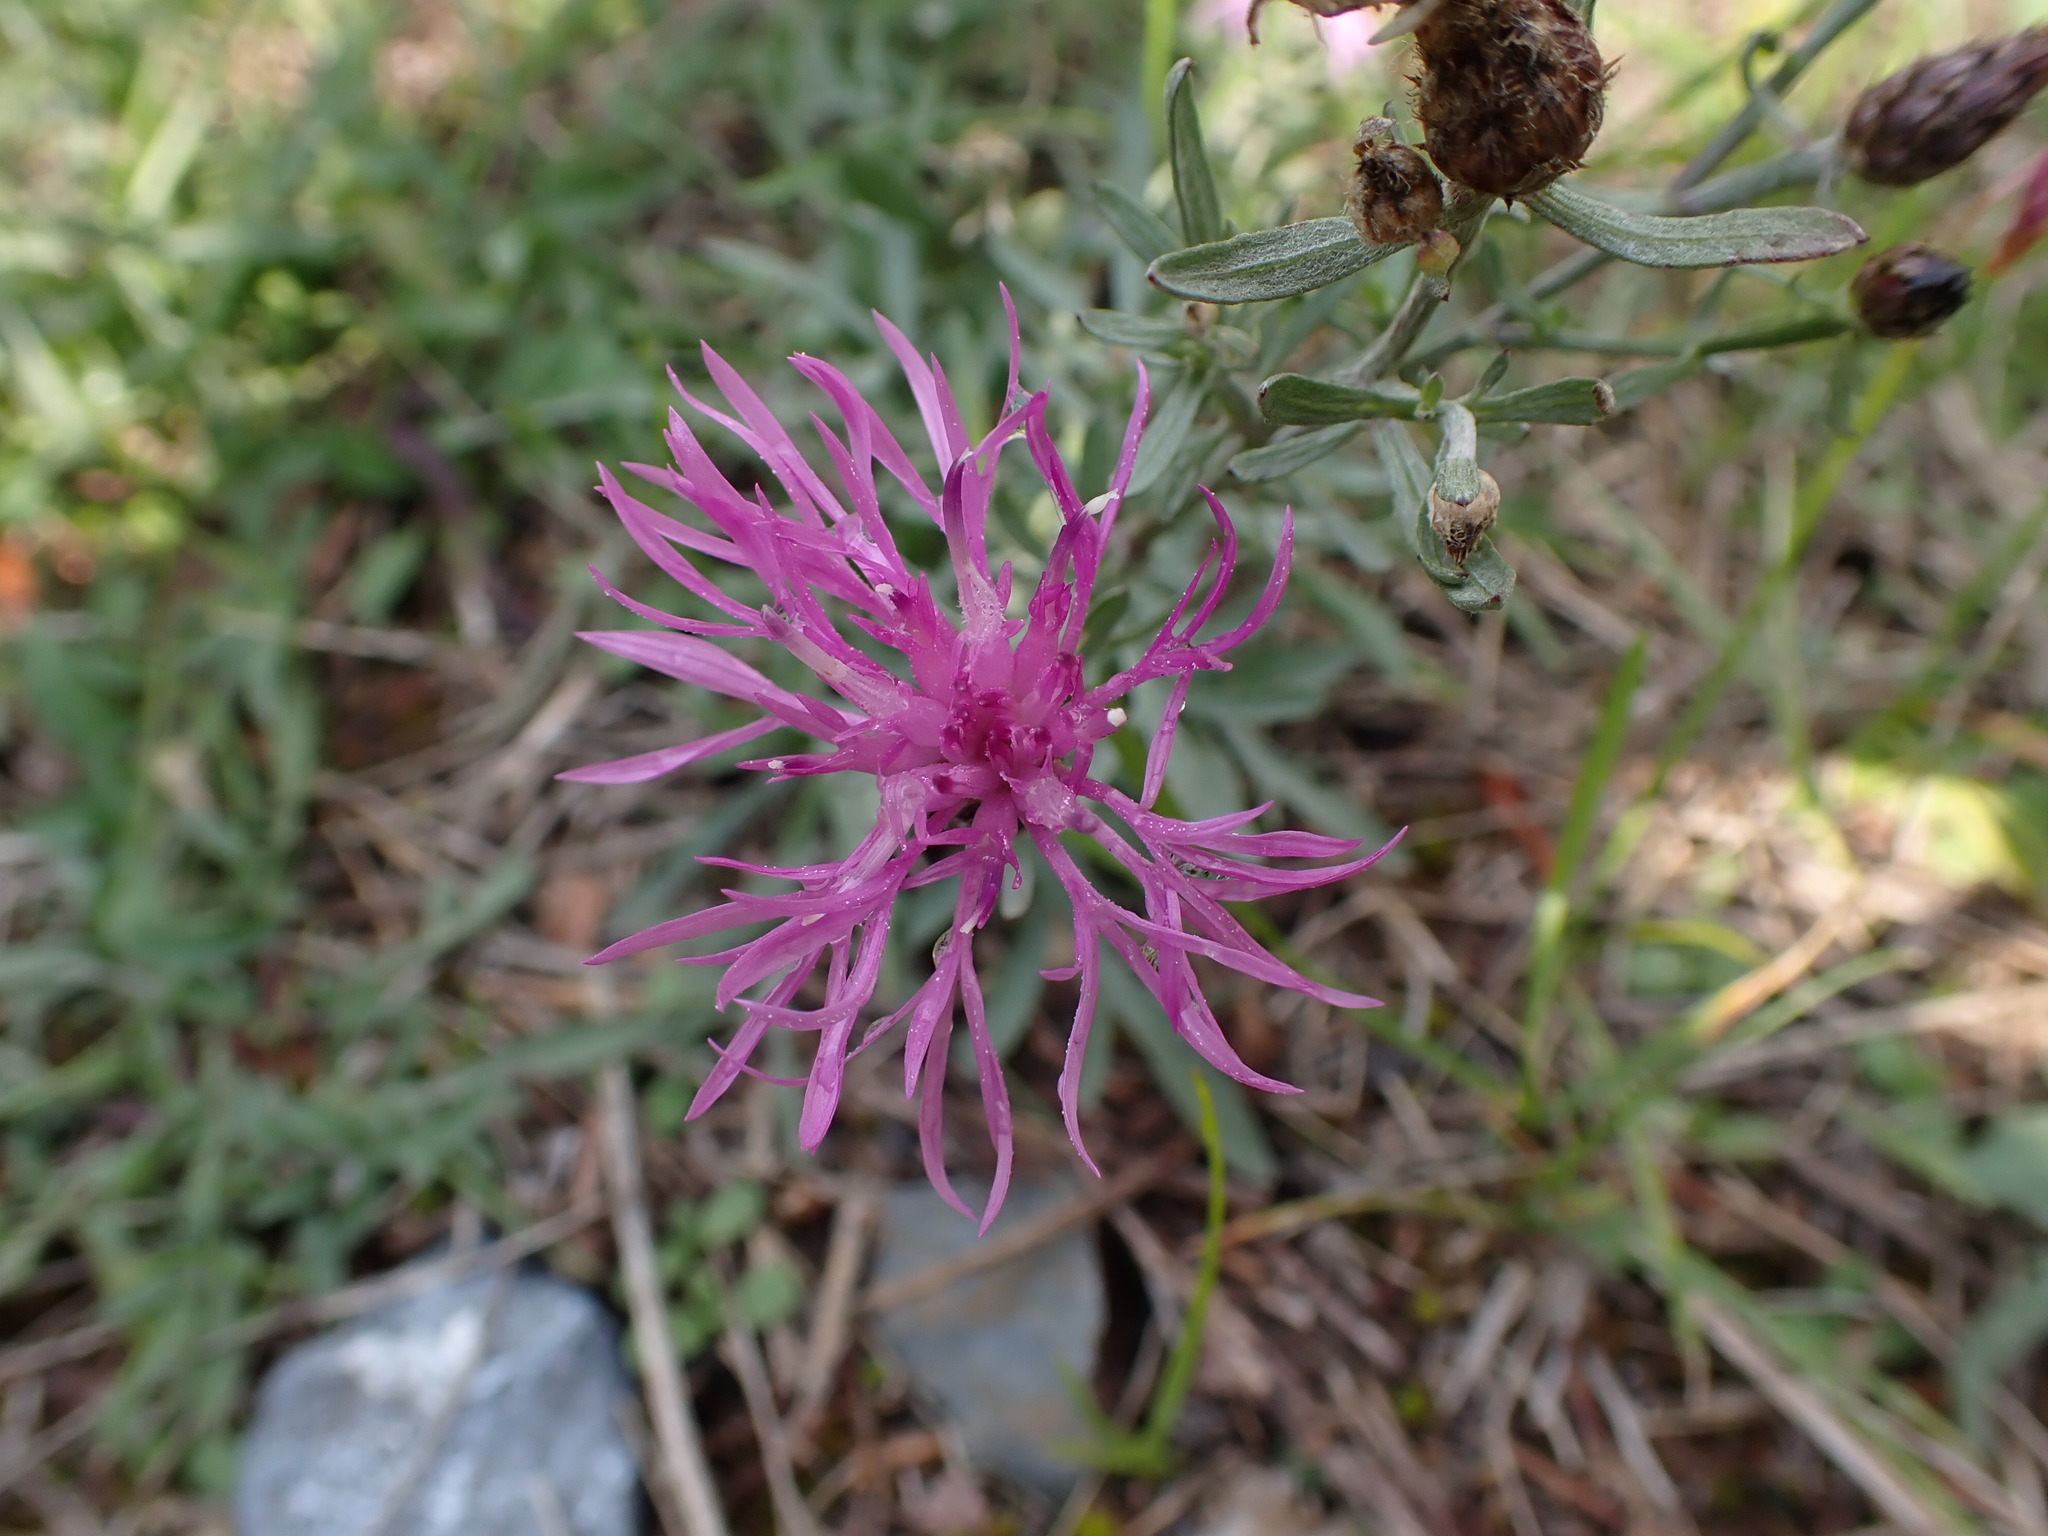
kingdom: Plantae
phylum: Tracheophyta
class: Magnoliopsida
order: Asterales
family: Asteraceae
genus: Centaurea
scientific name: Centaurea stoebe
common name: Spotted knapweed
